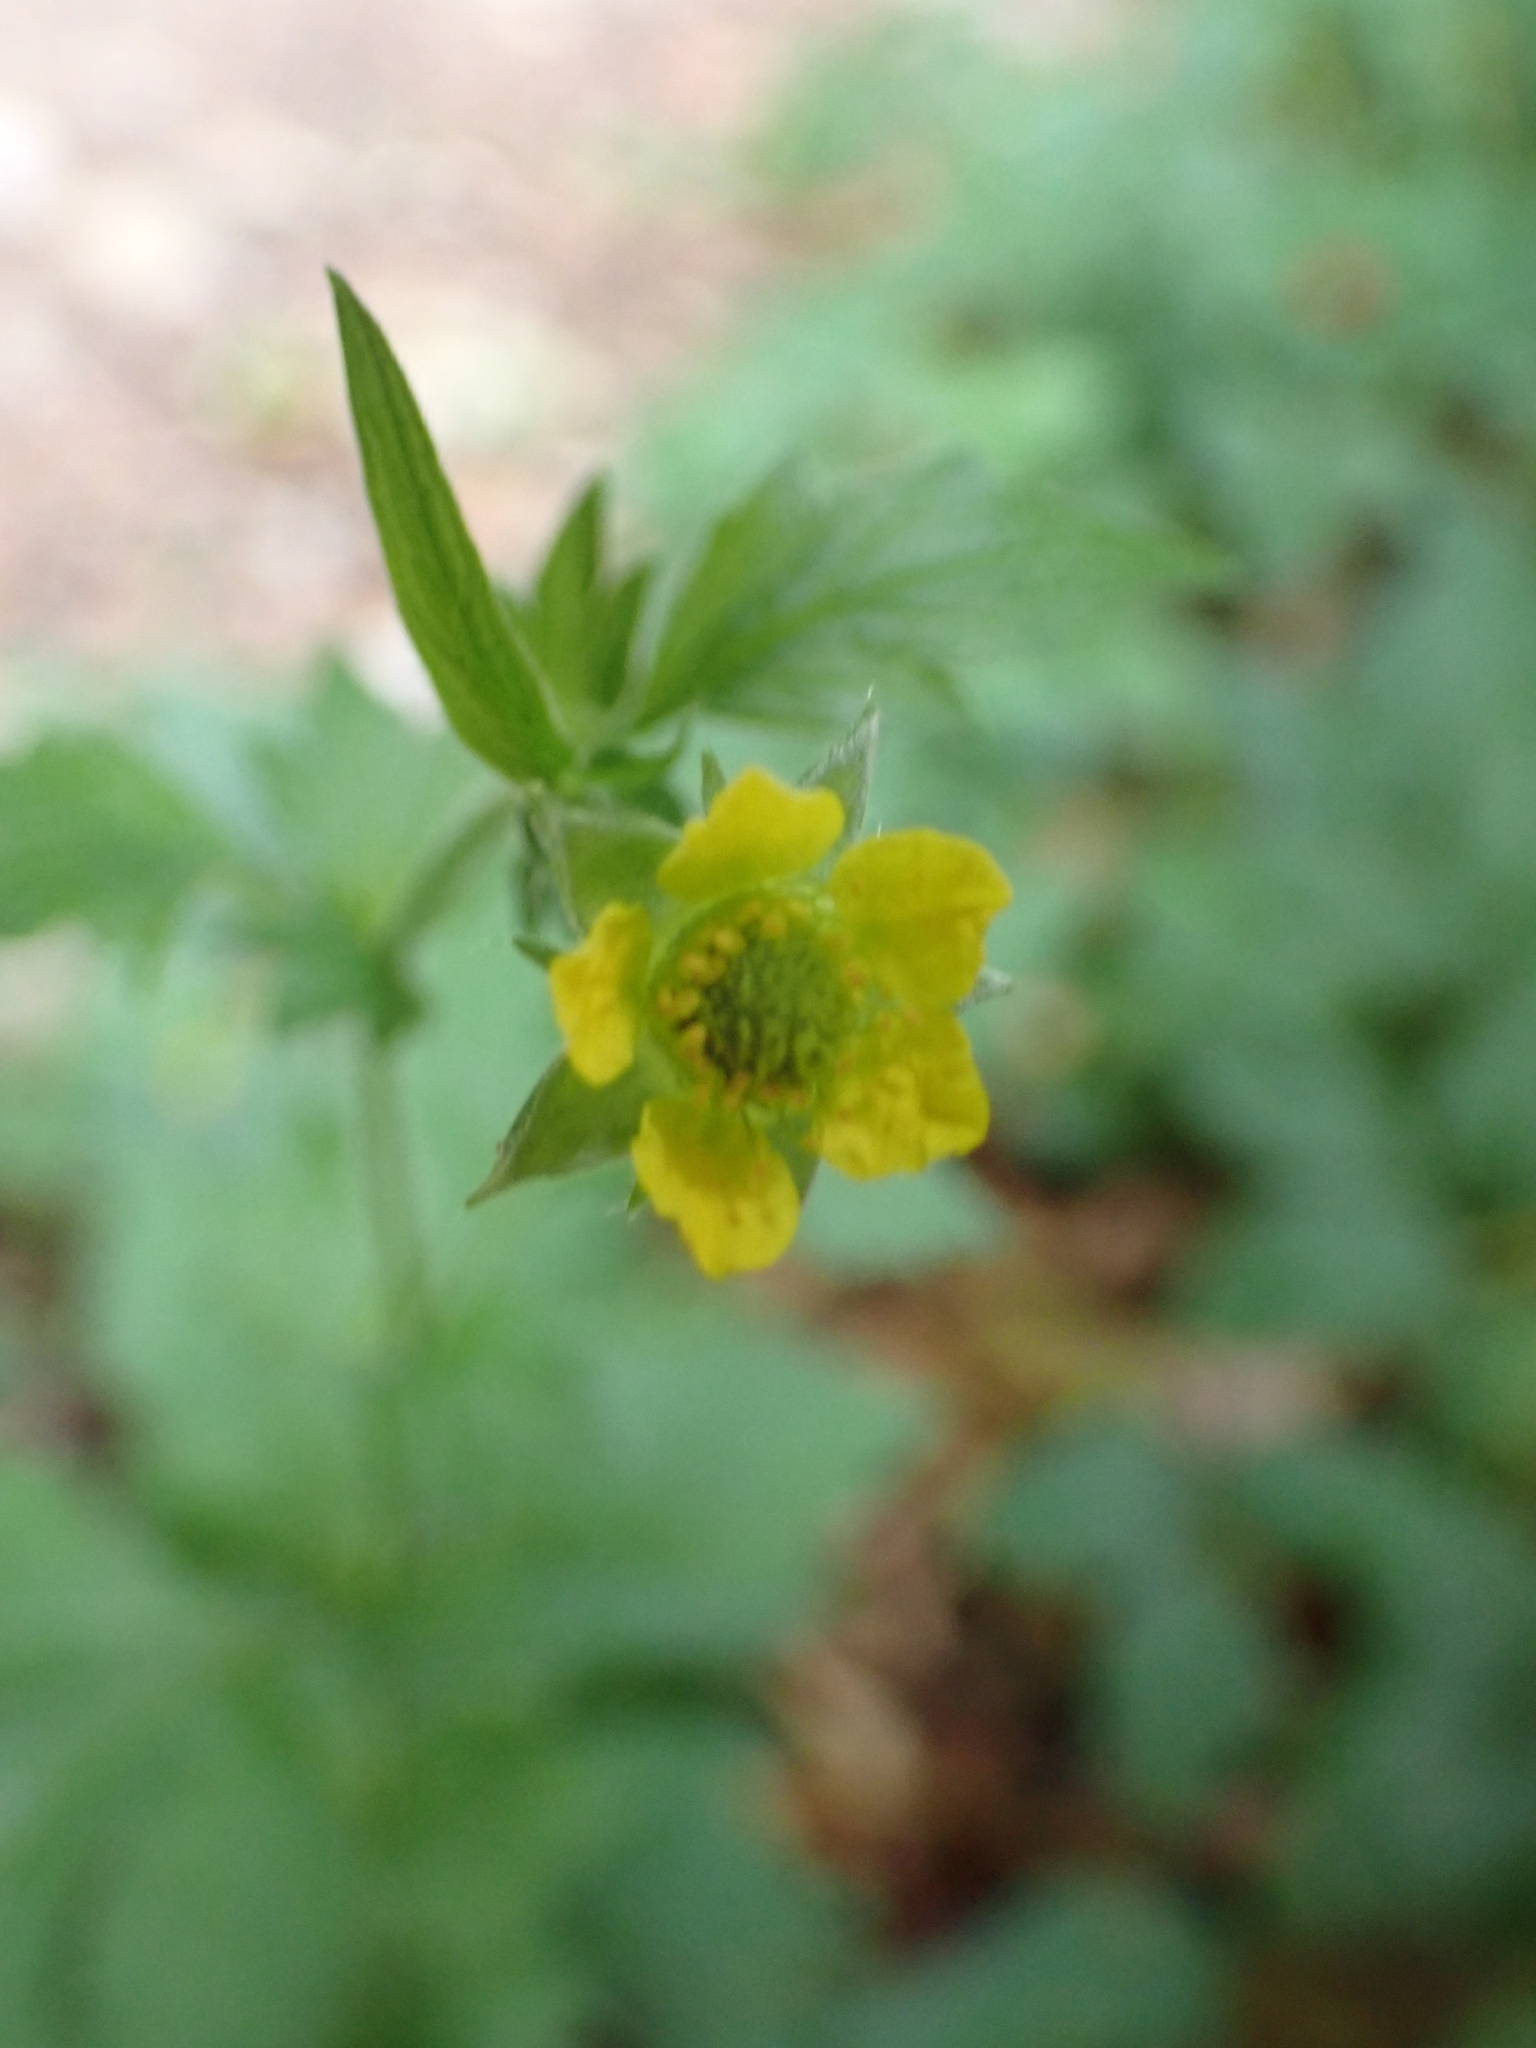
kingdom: Plantae
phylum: Tracheophyta
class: Magnoliopsida
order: Rosales
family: Rosaceae
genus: Geum
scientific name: Geum urbanum
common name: Wood avens
